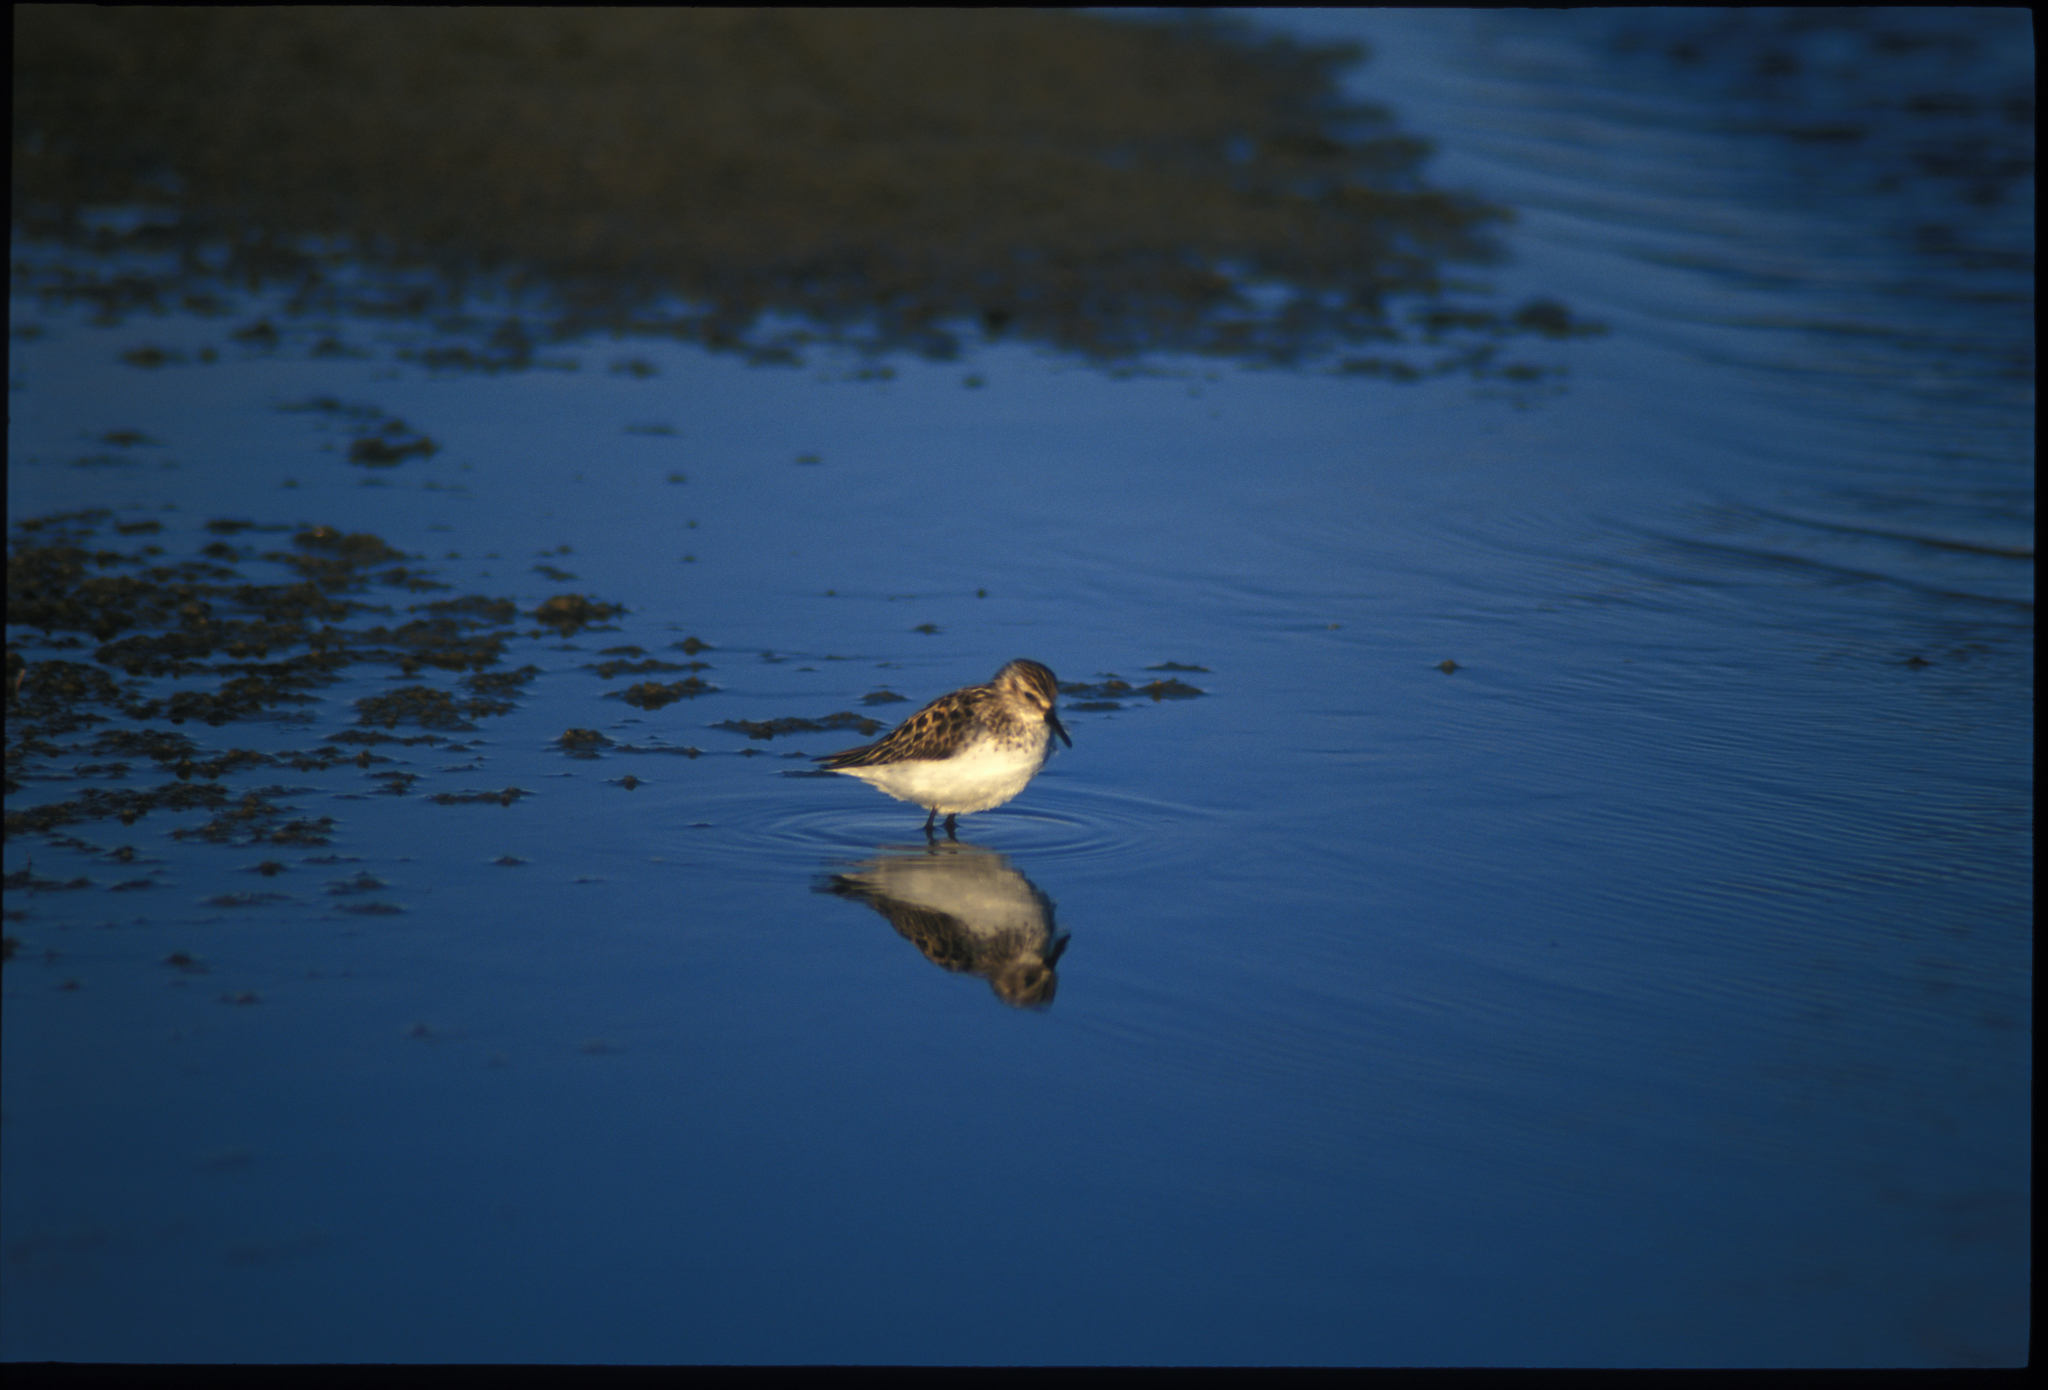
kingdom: Animalia
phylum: Chordata
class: Aves
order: Charadriiformes
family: Scolopacidae
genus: Calidris
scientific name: Calidris pusilla
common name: Semipalmated sandpiper
